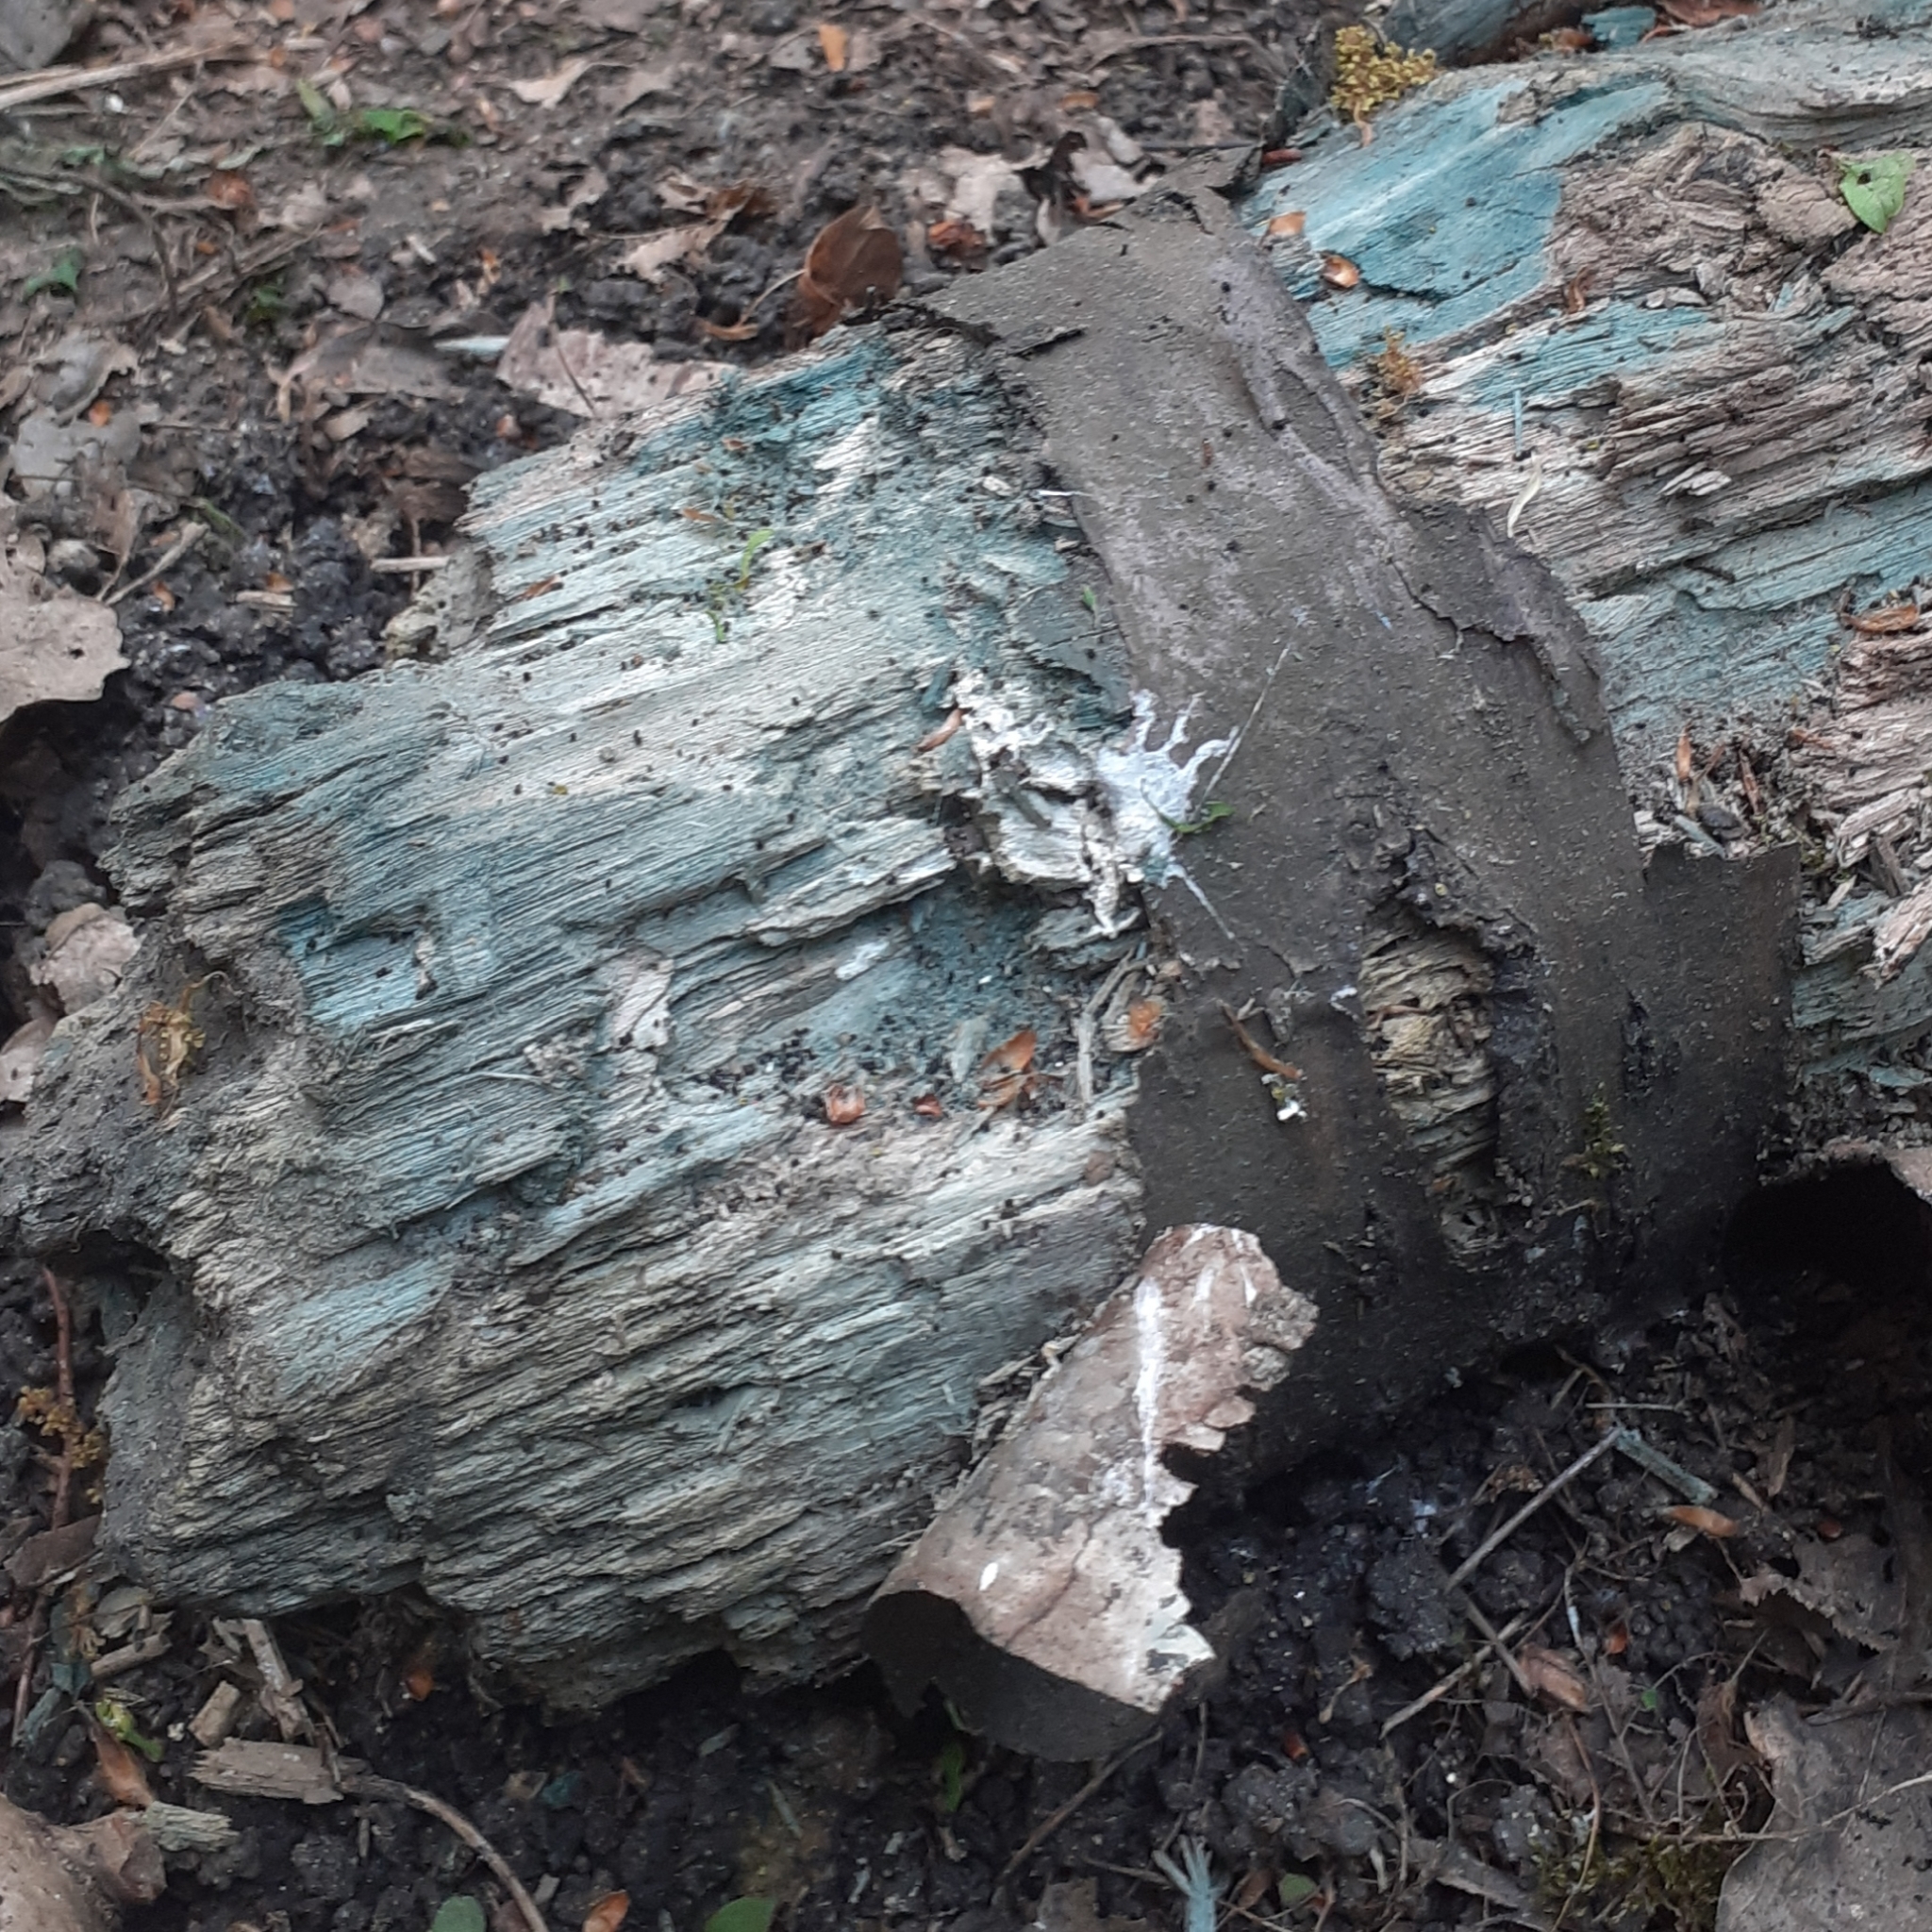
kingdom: Fungi
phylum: Ascomycota
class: Leotiomycetes
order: Helotiales
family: Chlorociboriaceae
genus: Chlorociboria
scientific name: Chlorociboria
